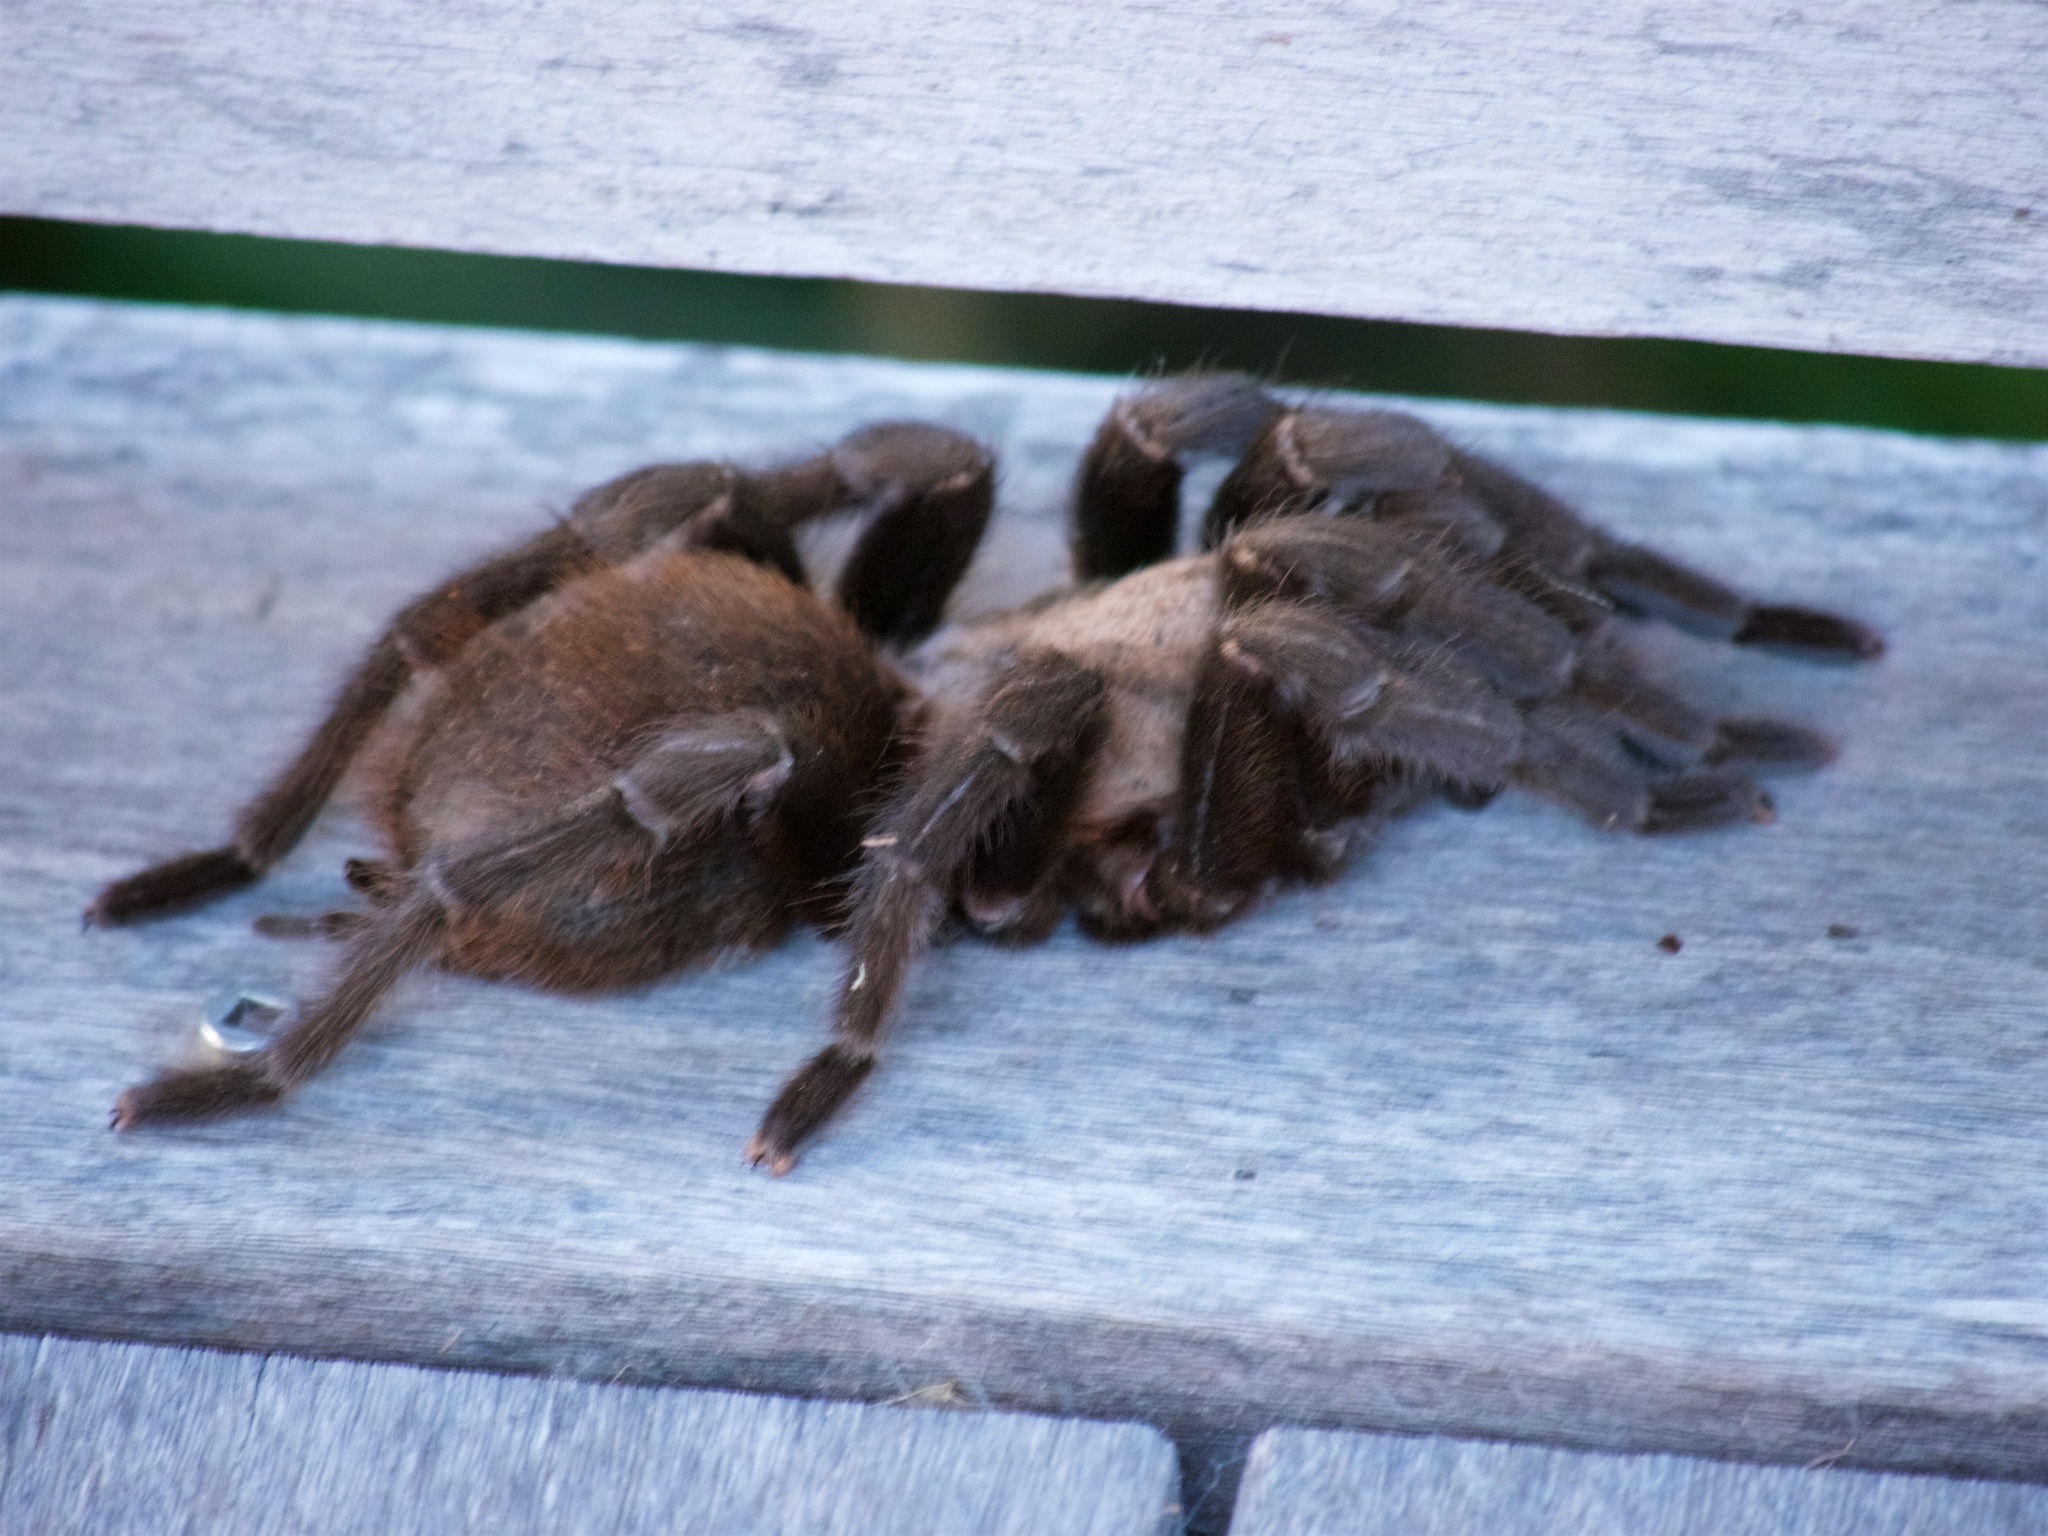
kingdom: Animalia
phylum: Arthropoda
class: Arachnida
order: Araneae
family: Theraphosidae
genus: Aphonopelma
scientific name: Aphonopelma anax
